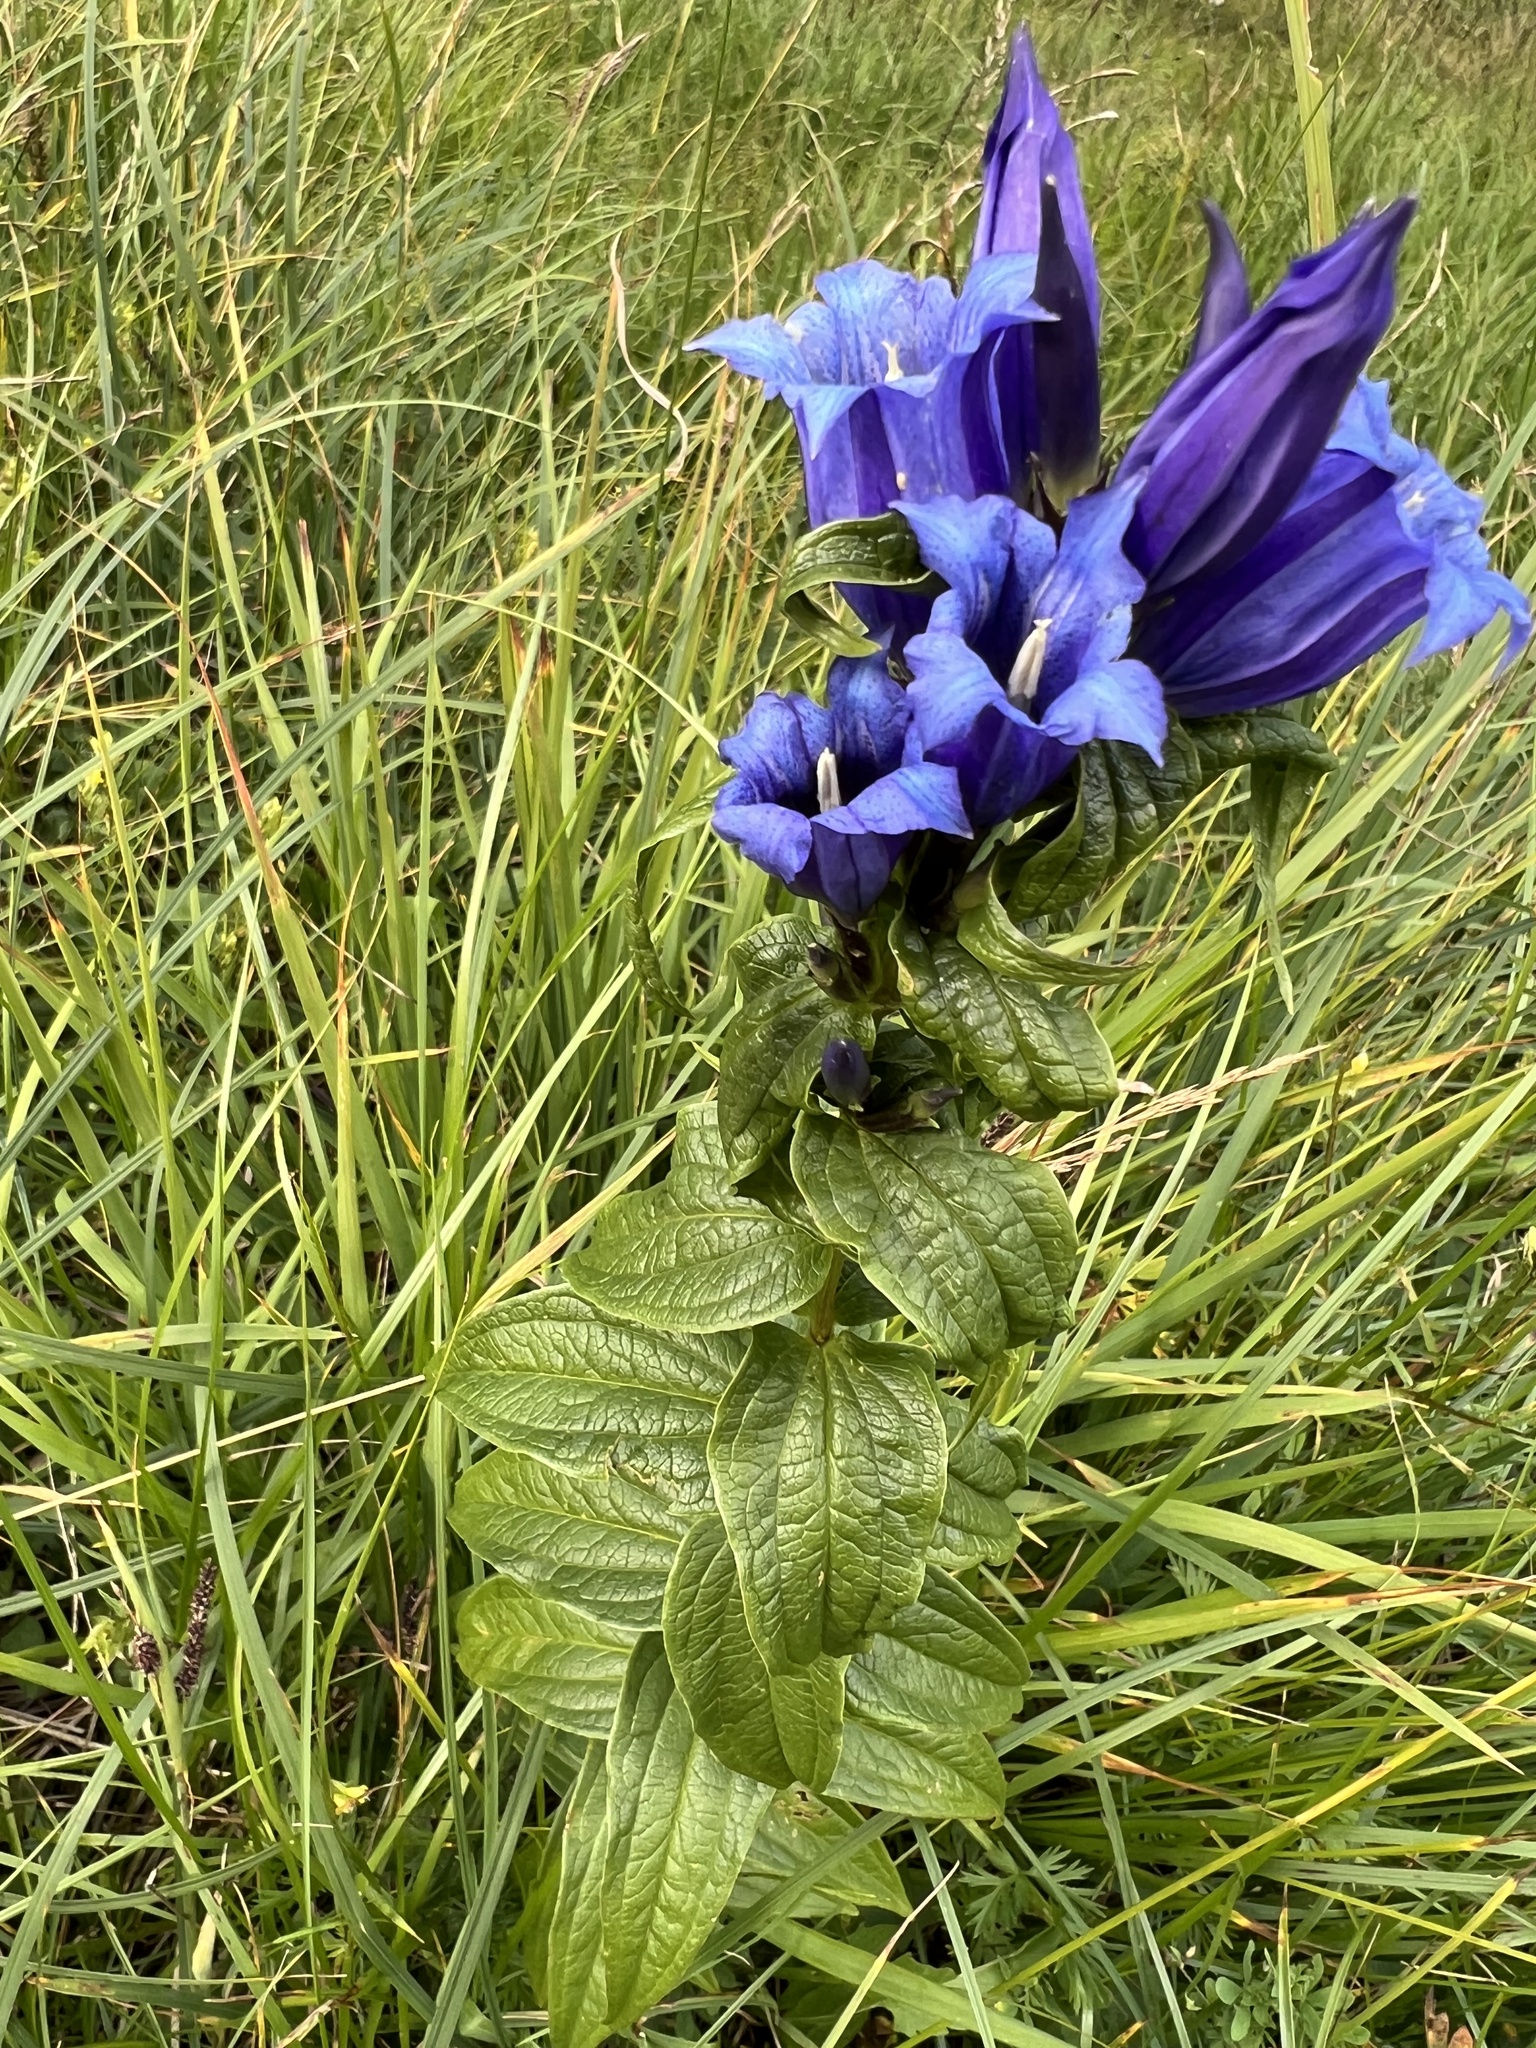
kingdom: Plantae
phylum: Tracheophyta
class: Magnoliopsida
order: Gentianales
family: Gentianaceae
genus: Gentiana
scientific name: Gentiana asclepiadea
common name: Willow gentian
